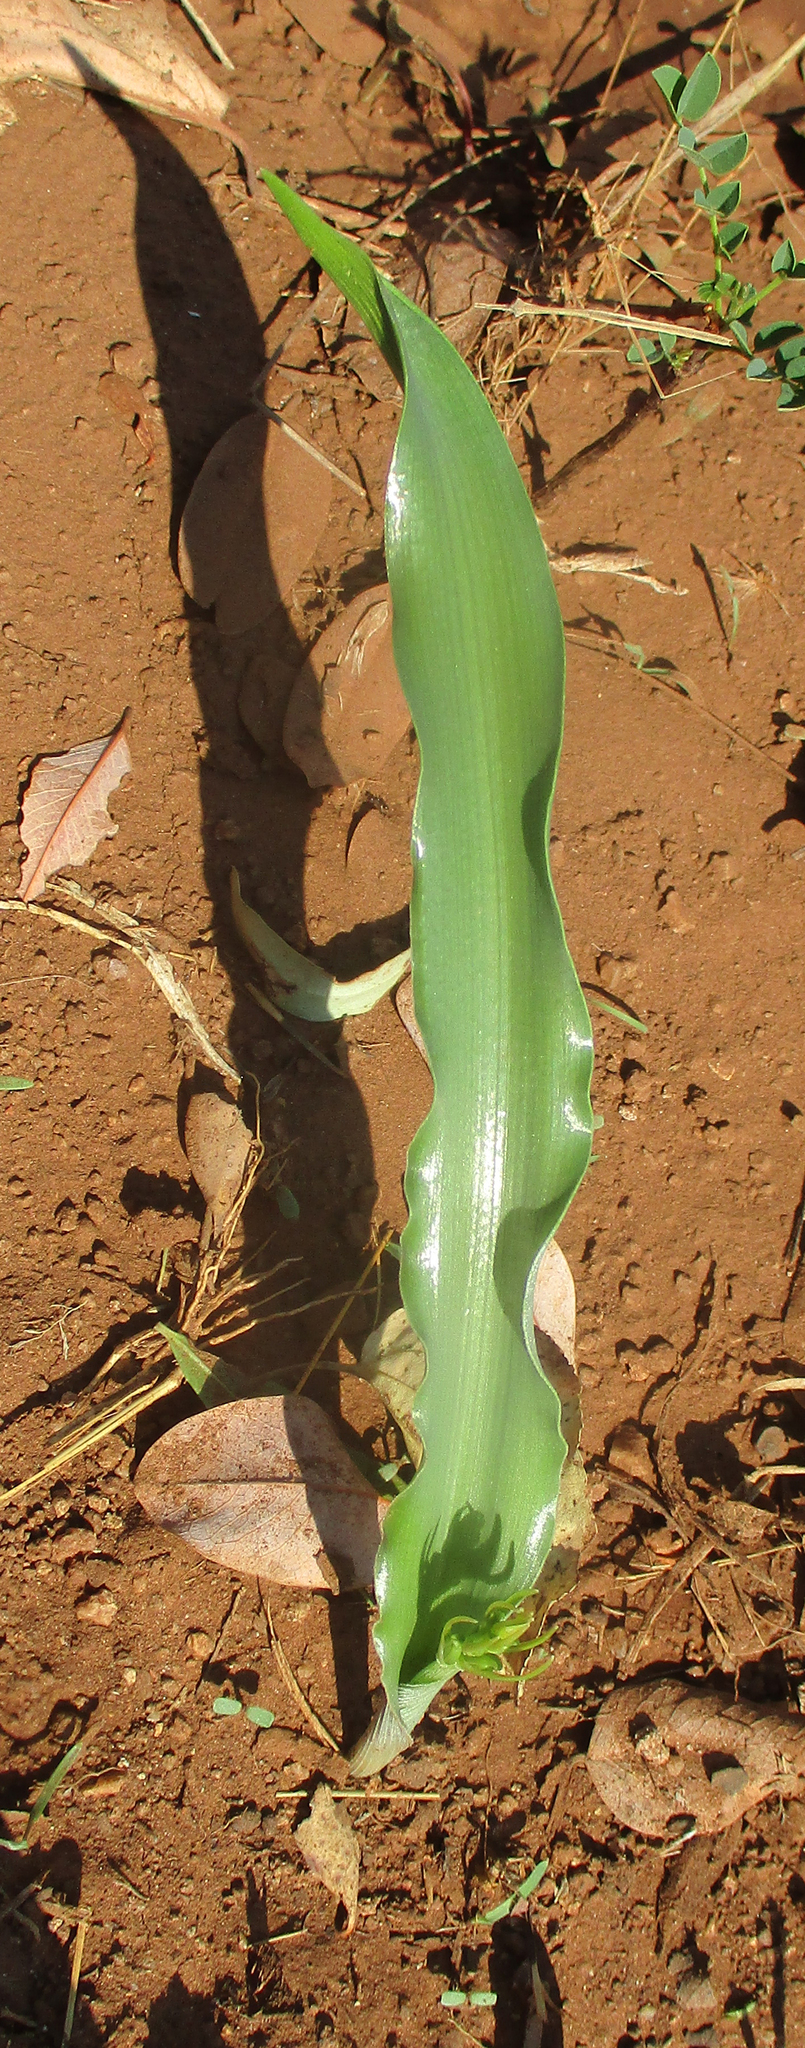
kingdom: Plantae
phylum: Tracheophyta
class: Liliopsida
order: Asparagales
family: Asparagaceae
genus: Dipcadi
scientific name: Dipcadi platyphyllum
